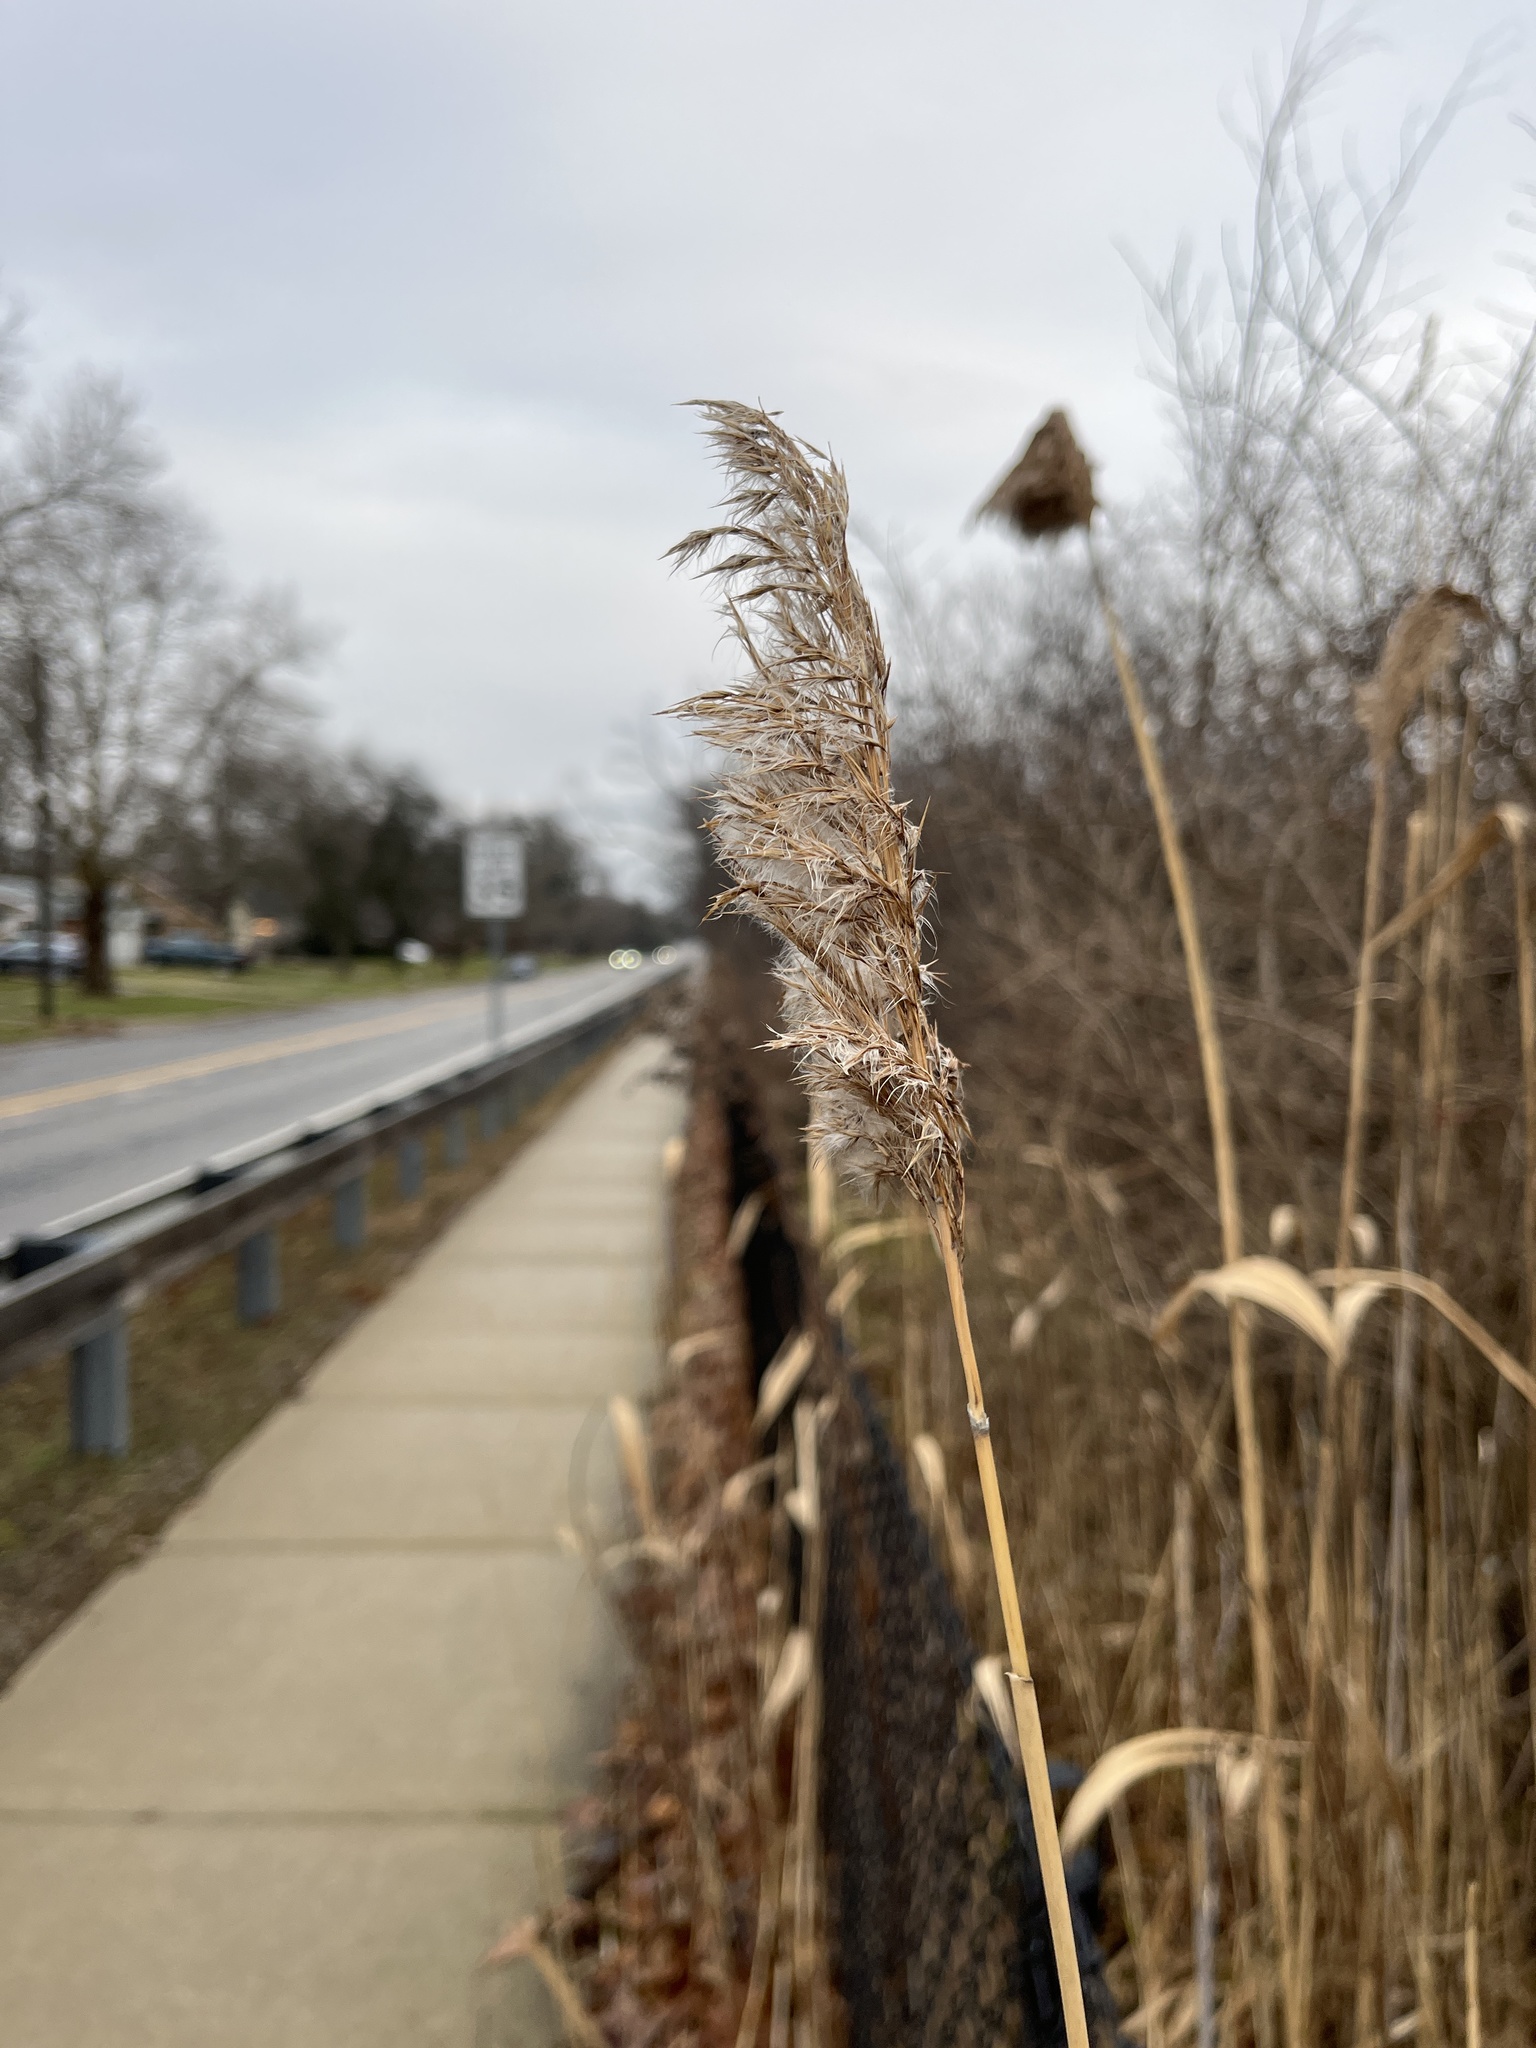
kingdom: Plantae
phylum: Tracheophyta
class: Liliopsida
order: Poales
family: Poaceae
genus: Phragmites
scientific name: Phragmites australis
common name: Common reed
